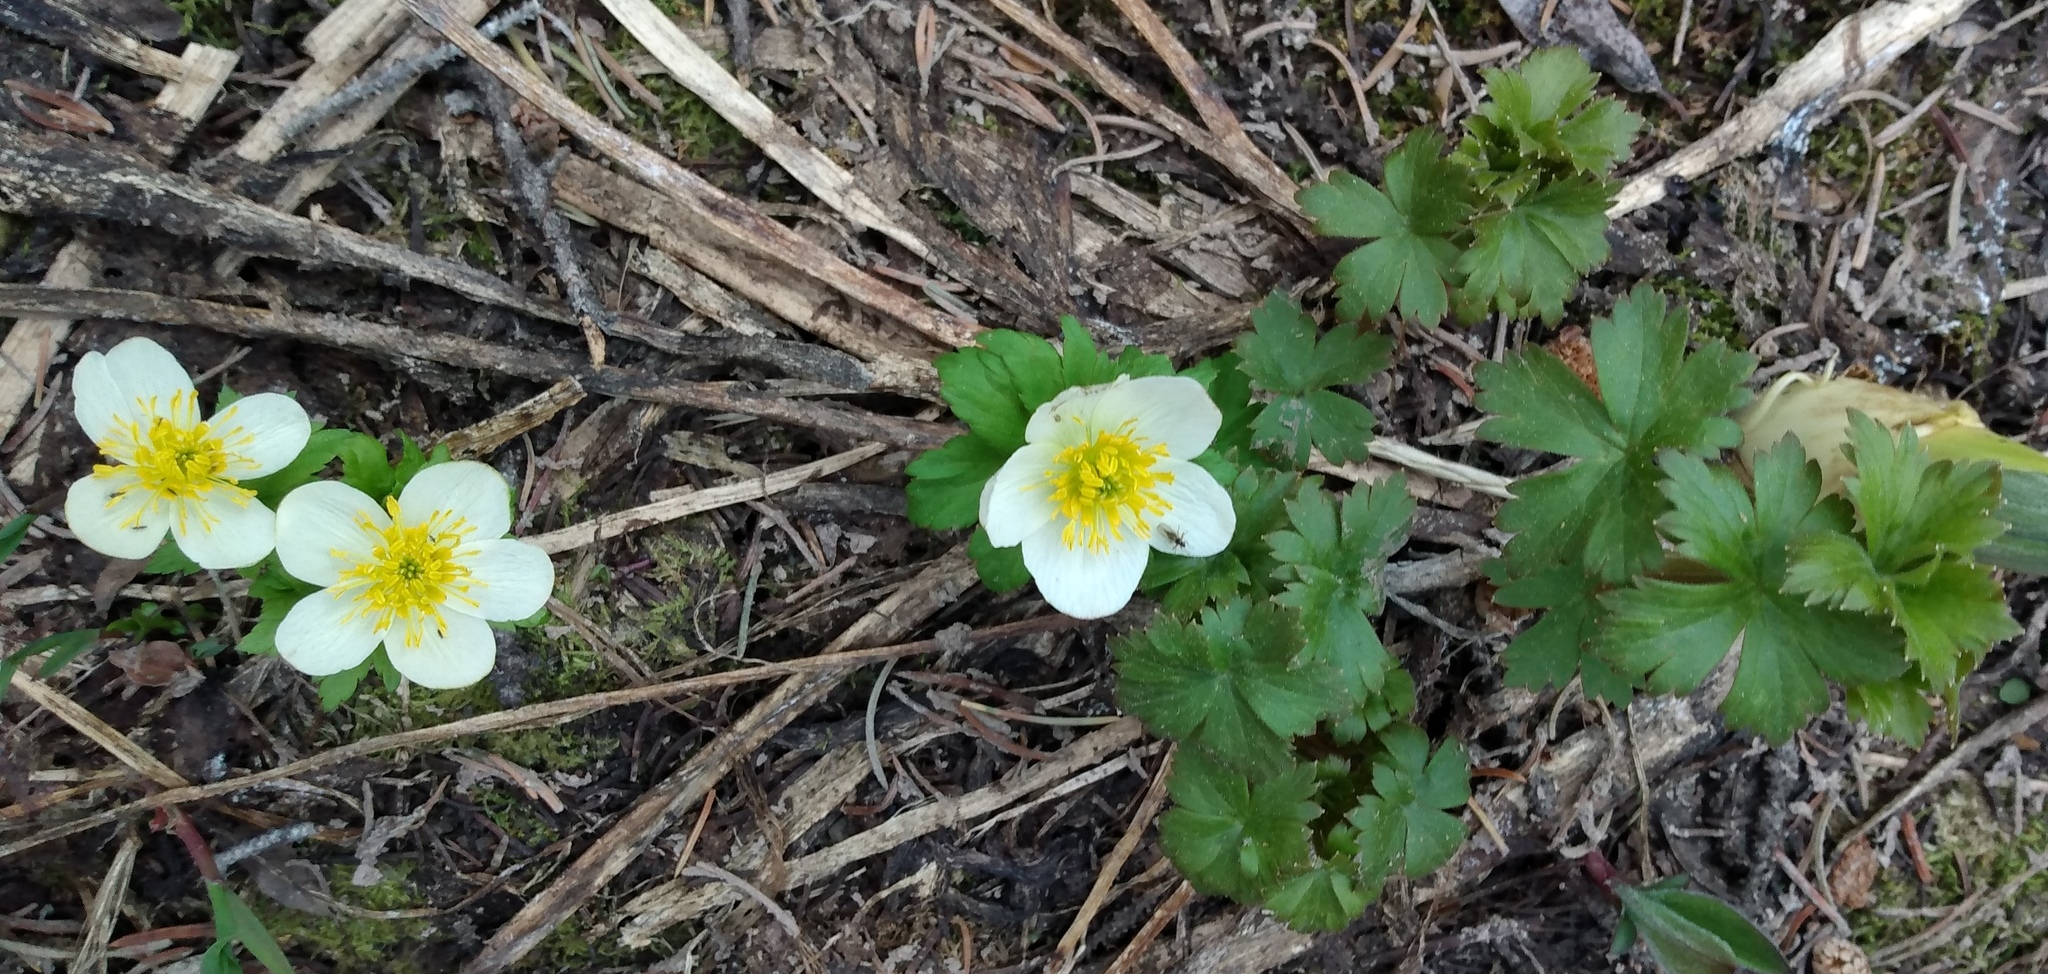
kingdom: Plantae
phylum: Tracheophyta
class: Magnoliopsida
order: Ranunculales
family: Ranunculaceae
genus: Trollius
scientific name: Trollius laxus
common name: American globeflower
